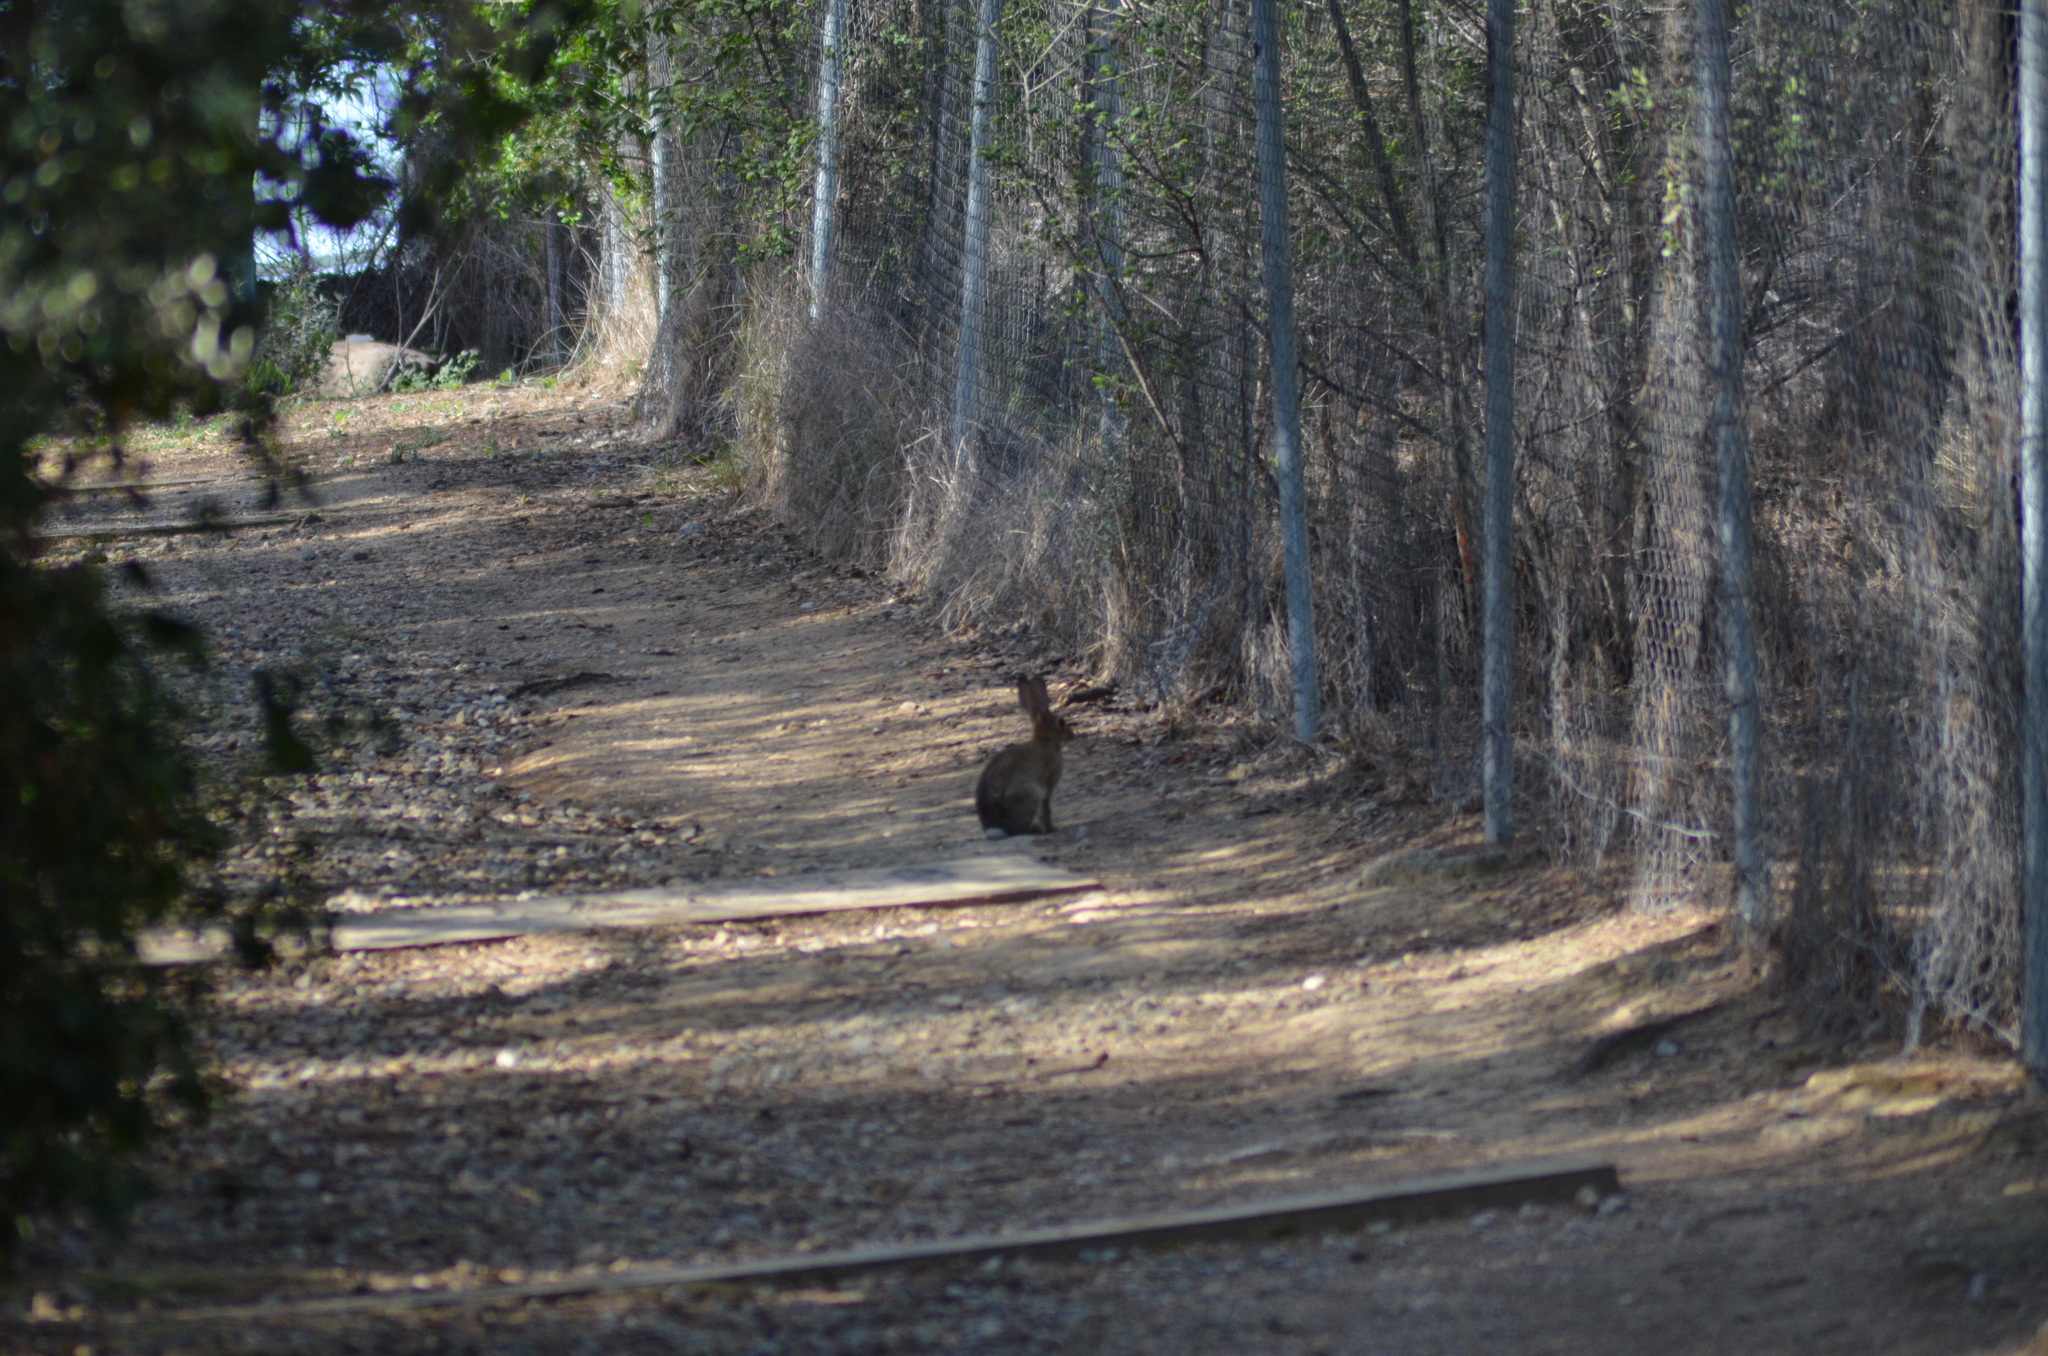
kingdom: Animalia
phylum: Chordata
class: Mammalia
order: Lagomorpha
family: Leporidae
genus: Oryctolagus
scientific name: Oryctolagus cuniculus
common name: European rabbit
